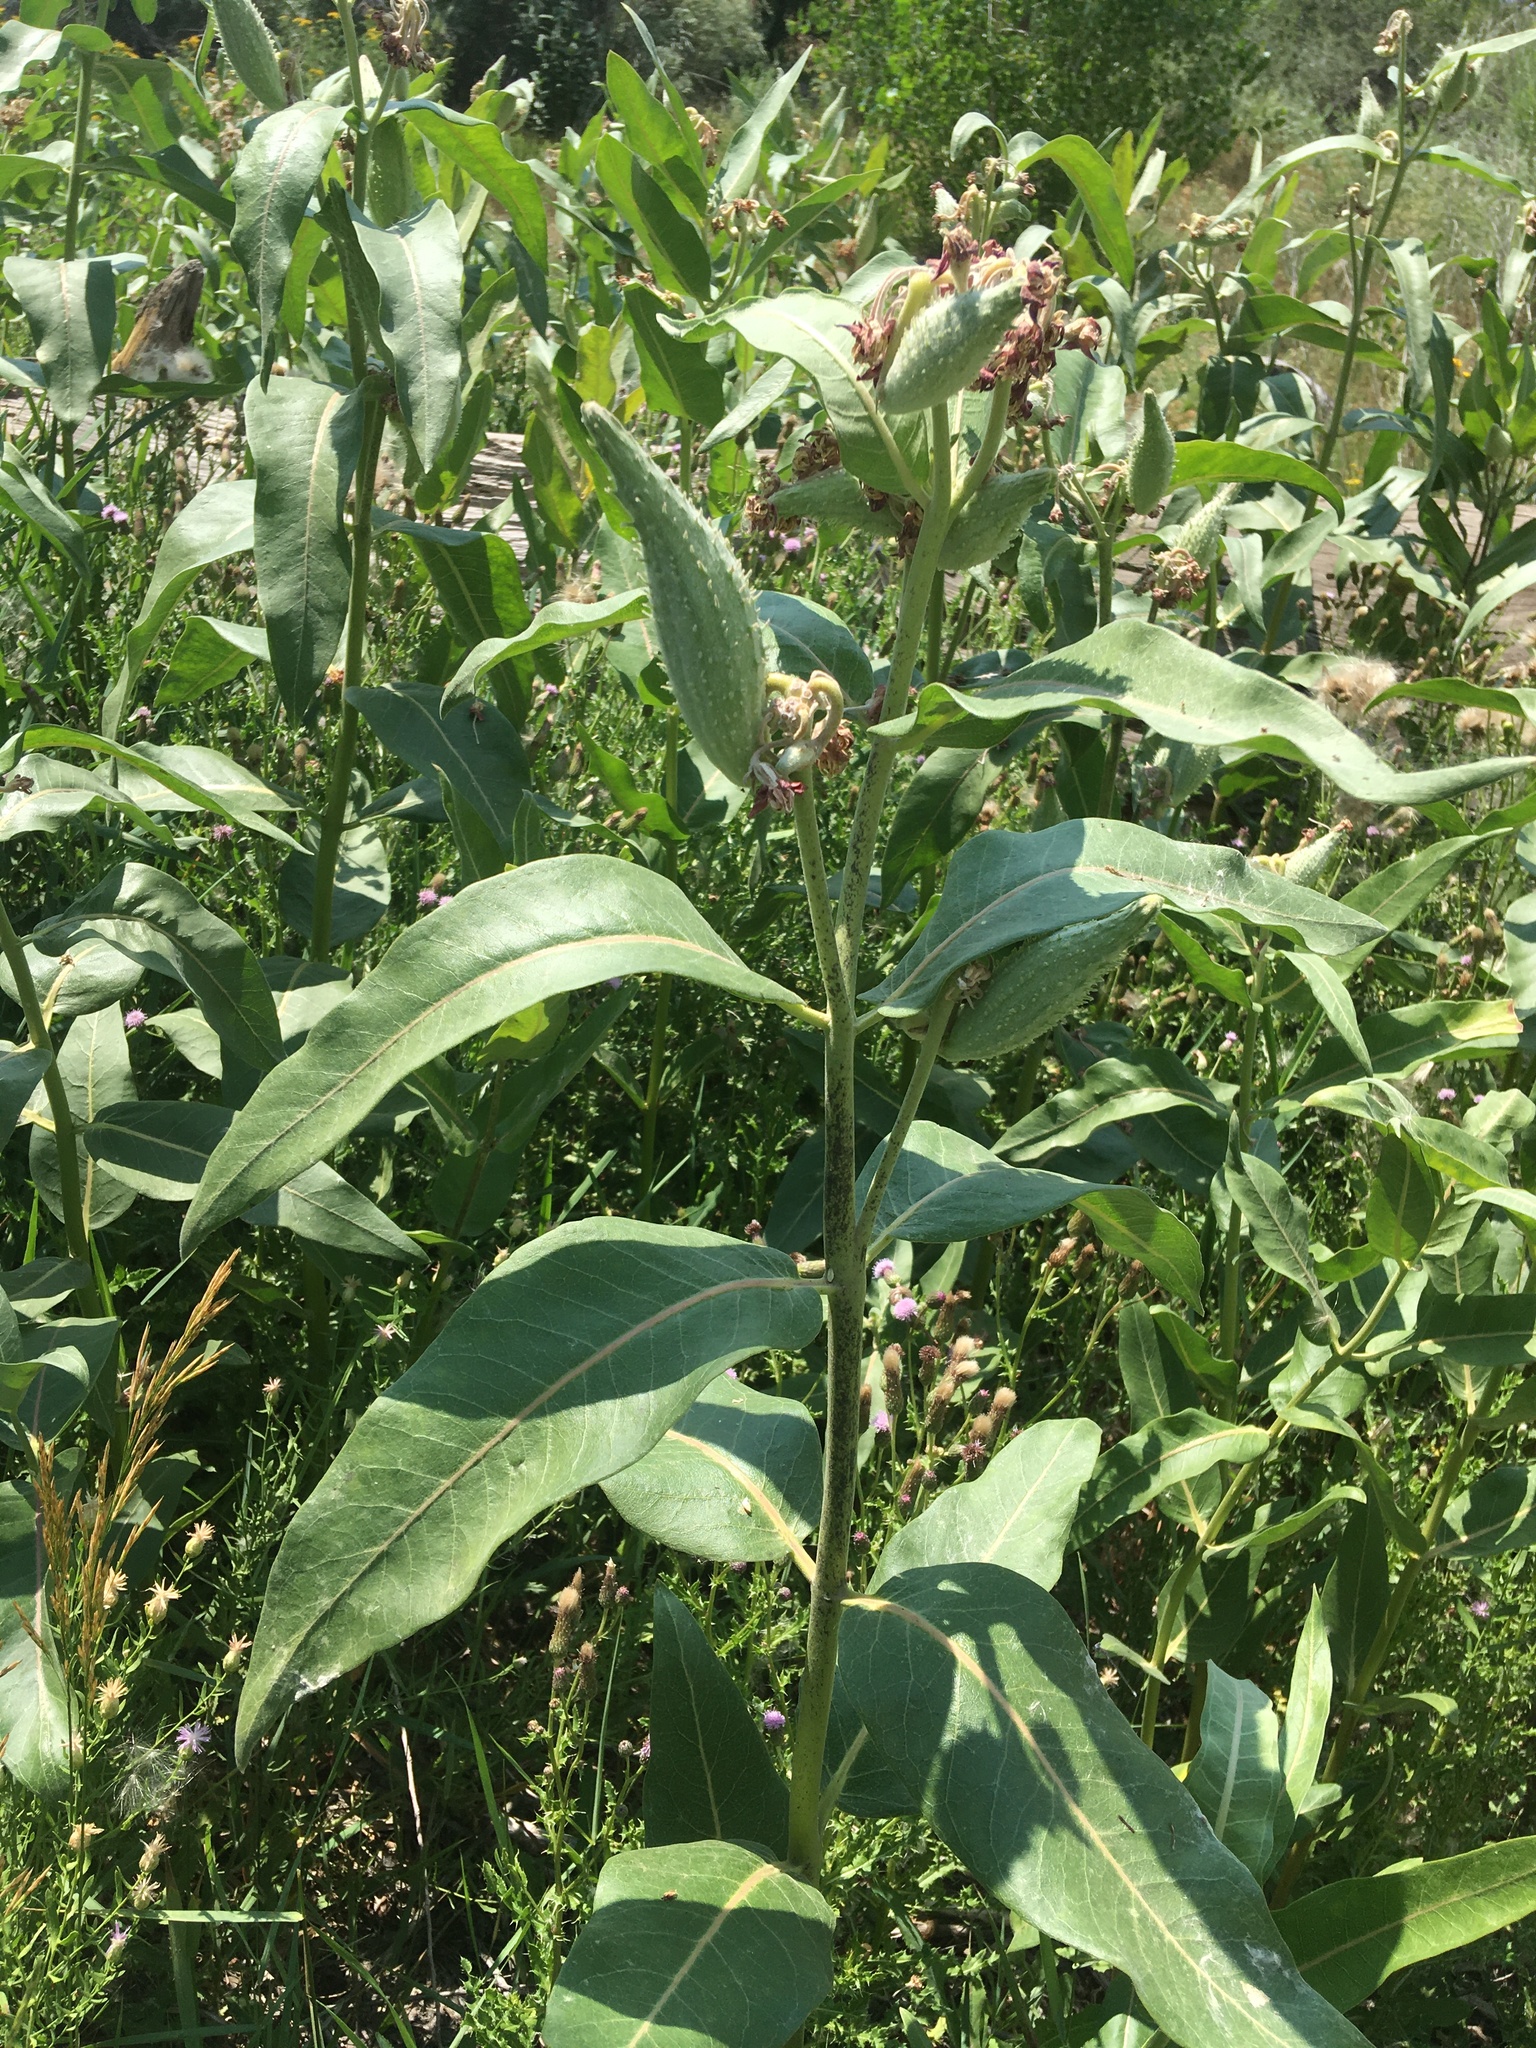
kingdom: Plantae
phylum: Tracheophyta
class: Magnoliopsida
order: Gentianales
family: Apocynaceae
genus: Asclepias
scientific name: Asclepias speciosa
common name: Showy milkweed
